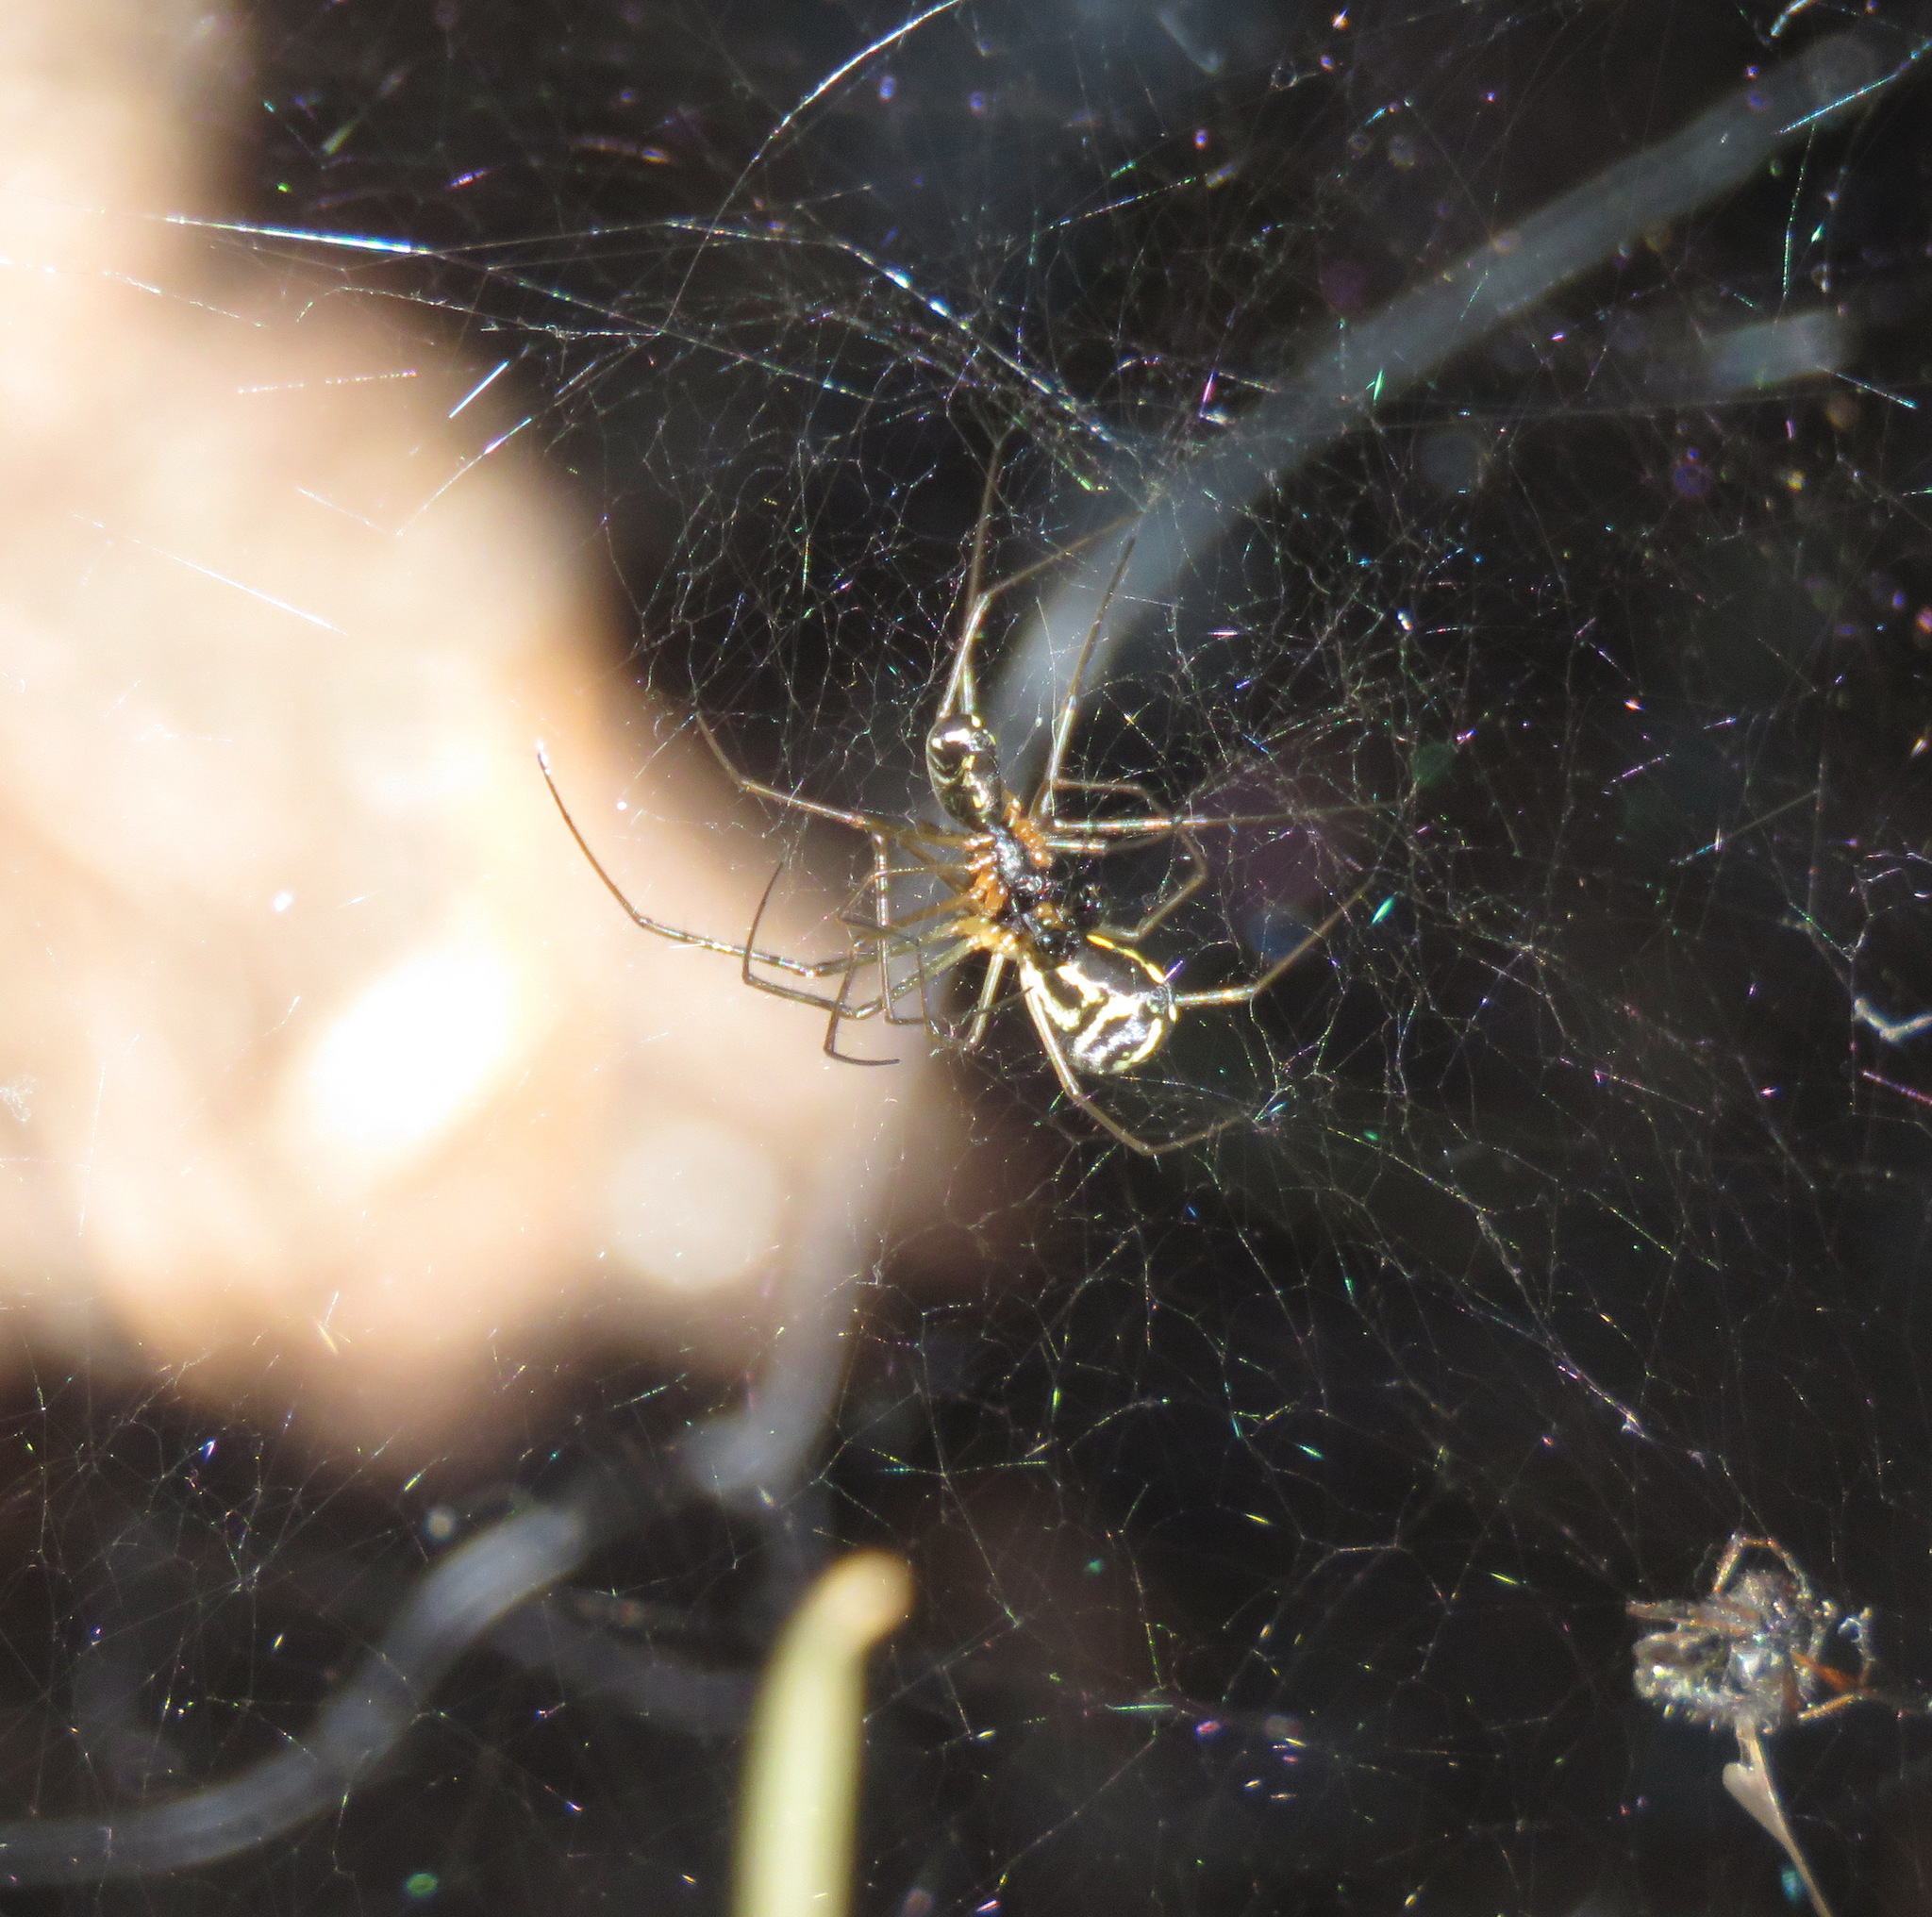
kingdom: Animalia
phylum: Arthropoda
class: Arachnida
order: Araneae
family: Linyphiidae
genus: Neriene
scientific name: Neriene radiata
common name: Filmy dome spider
